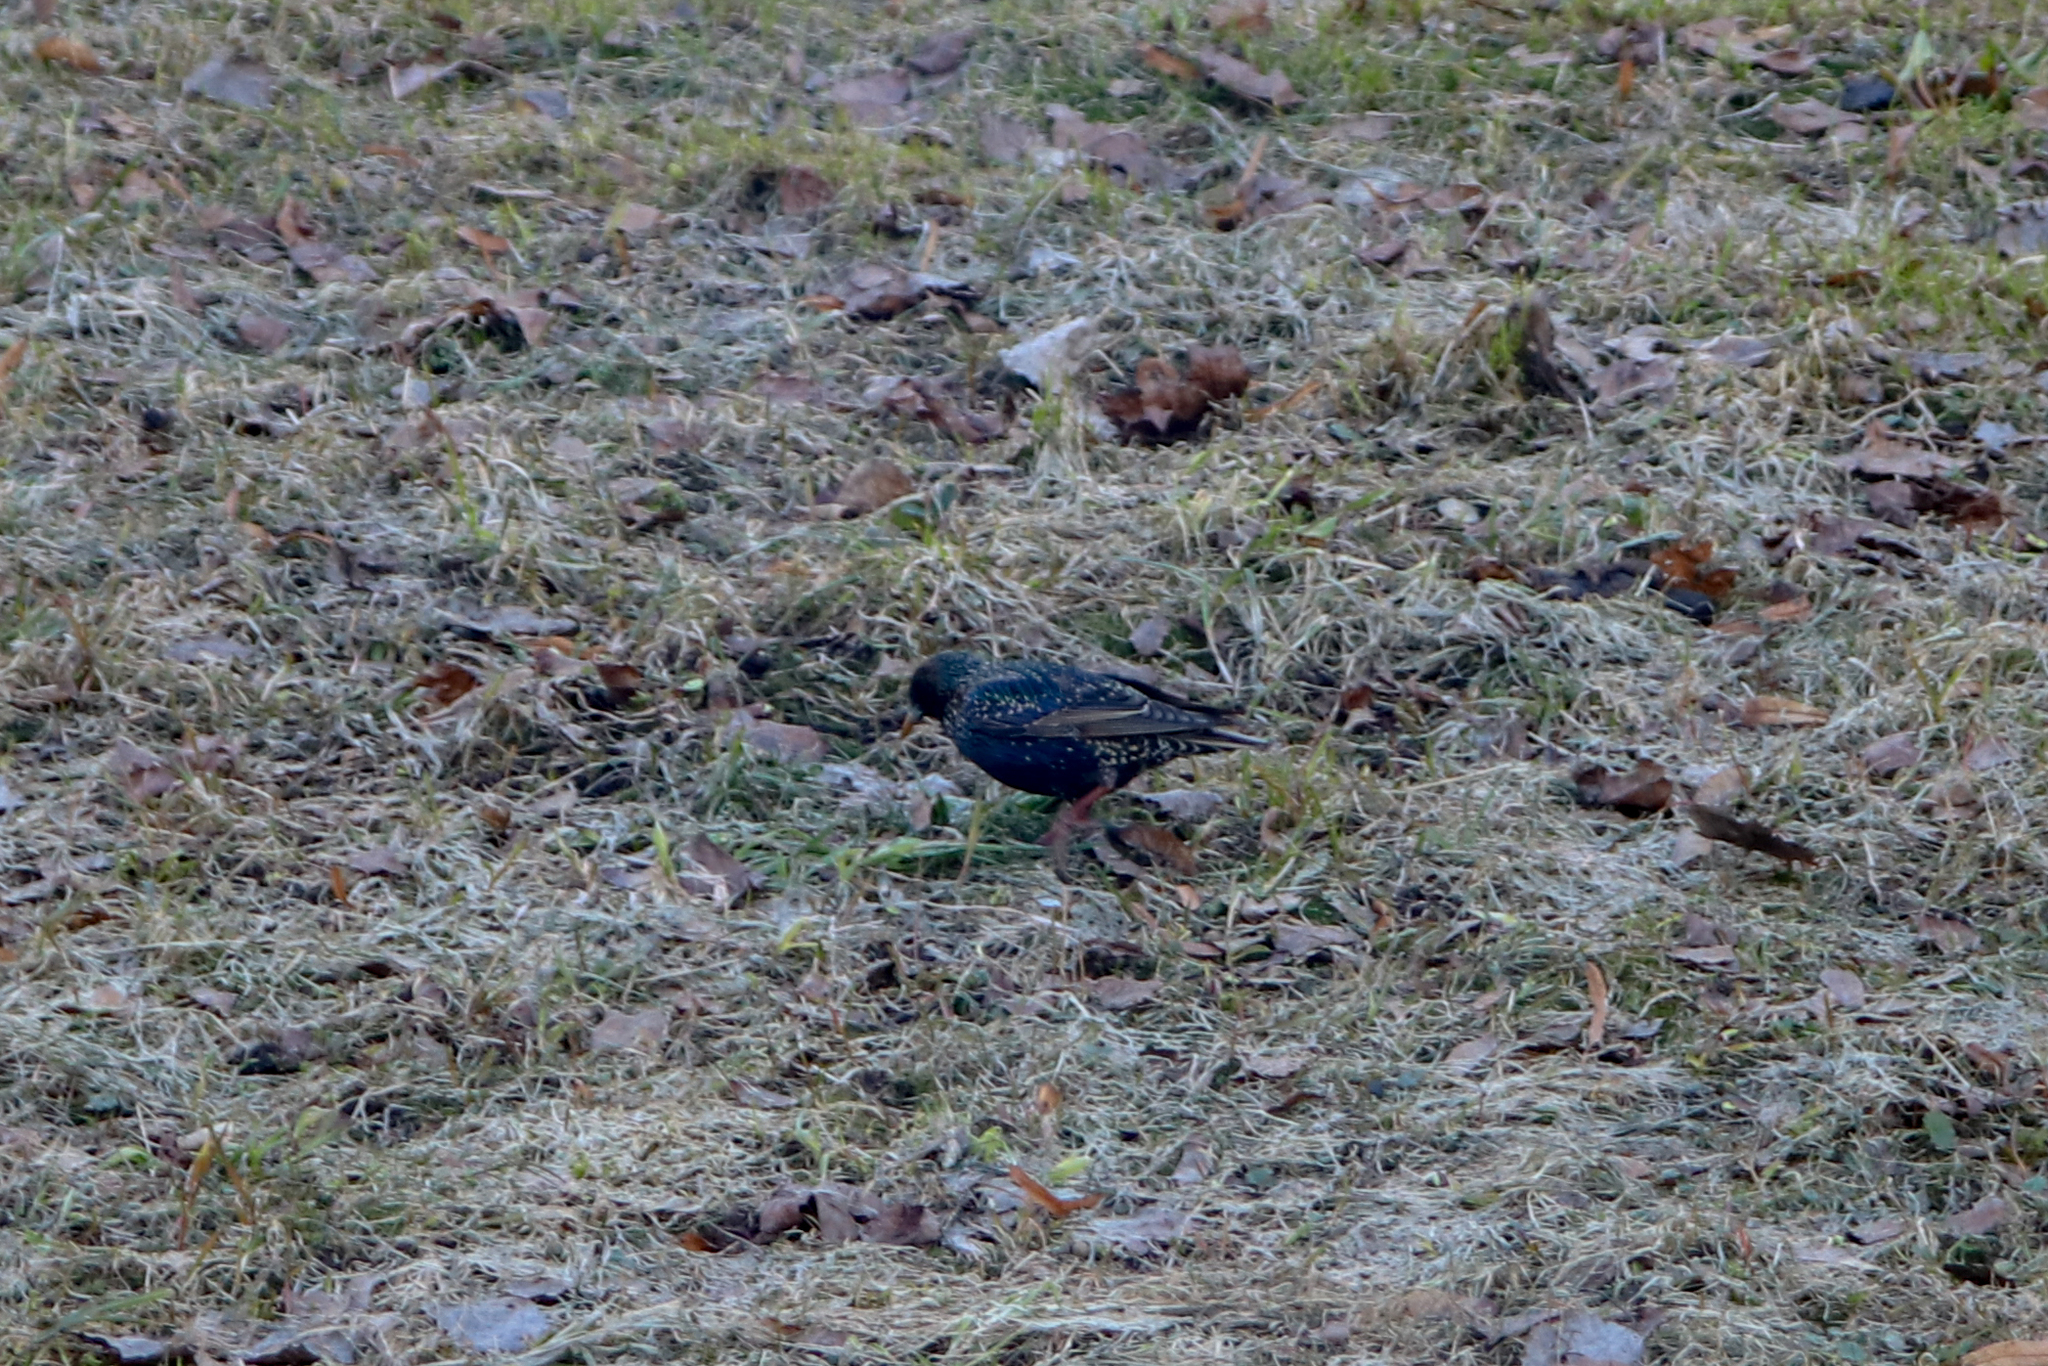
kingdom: Animalia
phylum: Chordata
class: Aves
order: Passeriformes
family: Sturnidae
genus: Sturnus
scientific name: Sturnus vulgaris
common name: Common starling
